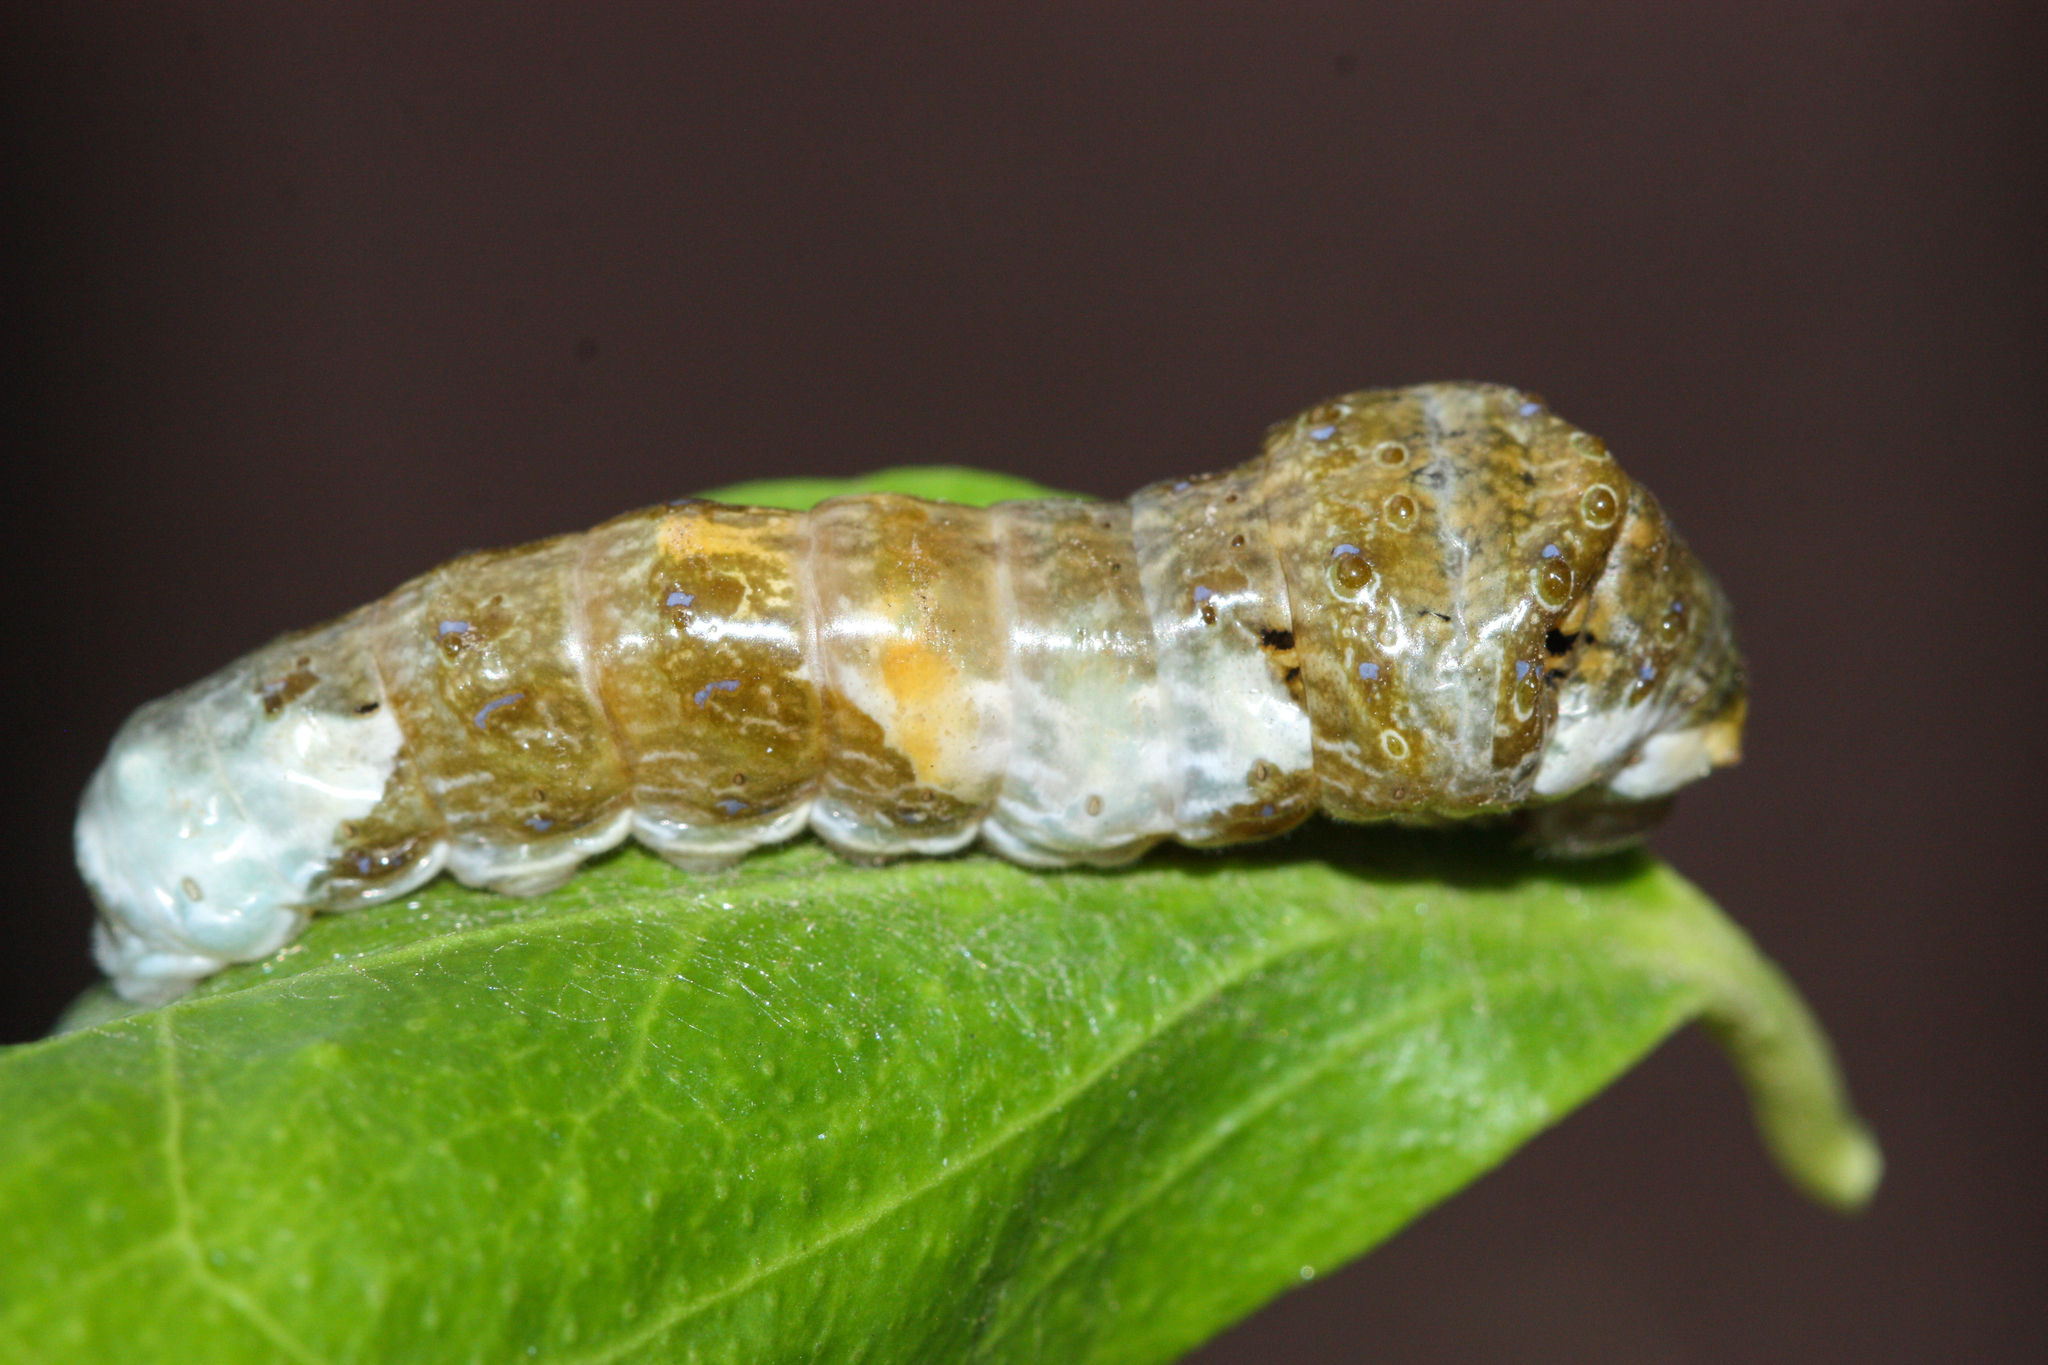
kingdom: Animalia
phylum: Arthropoda
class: Insecta
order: Lepidoptera
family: Papilionidae
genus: Papilio
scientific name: Papilio rumiko
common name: Western giant swallowtail
